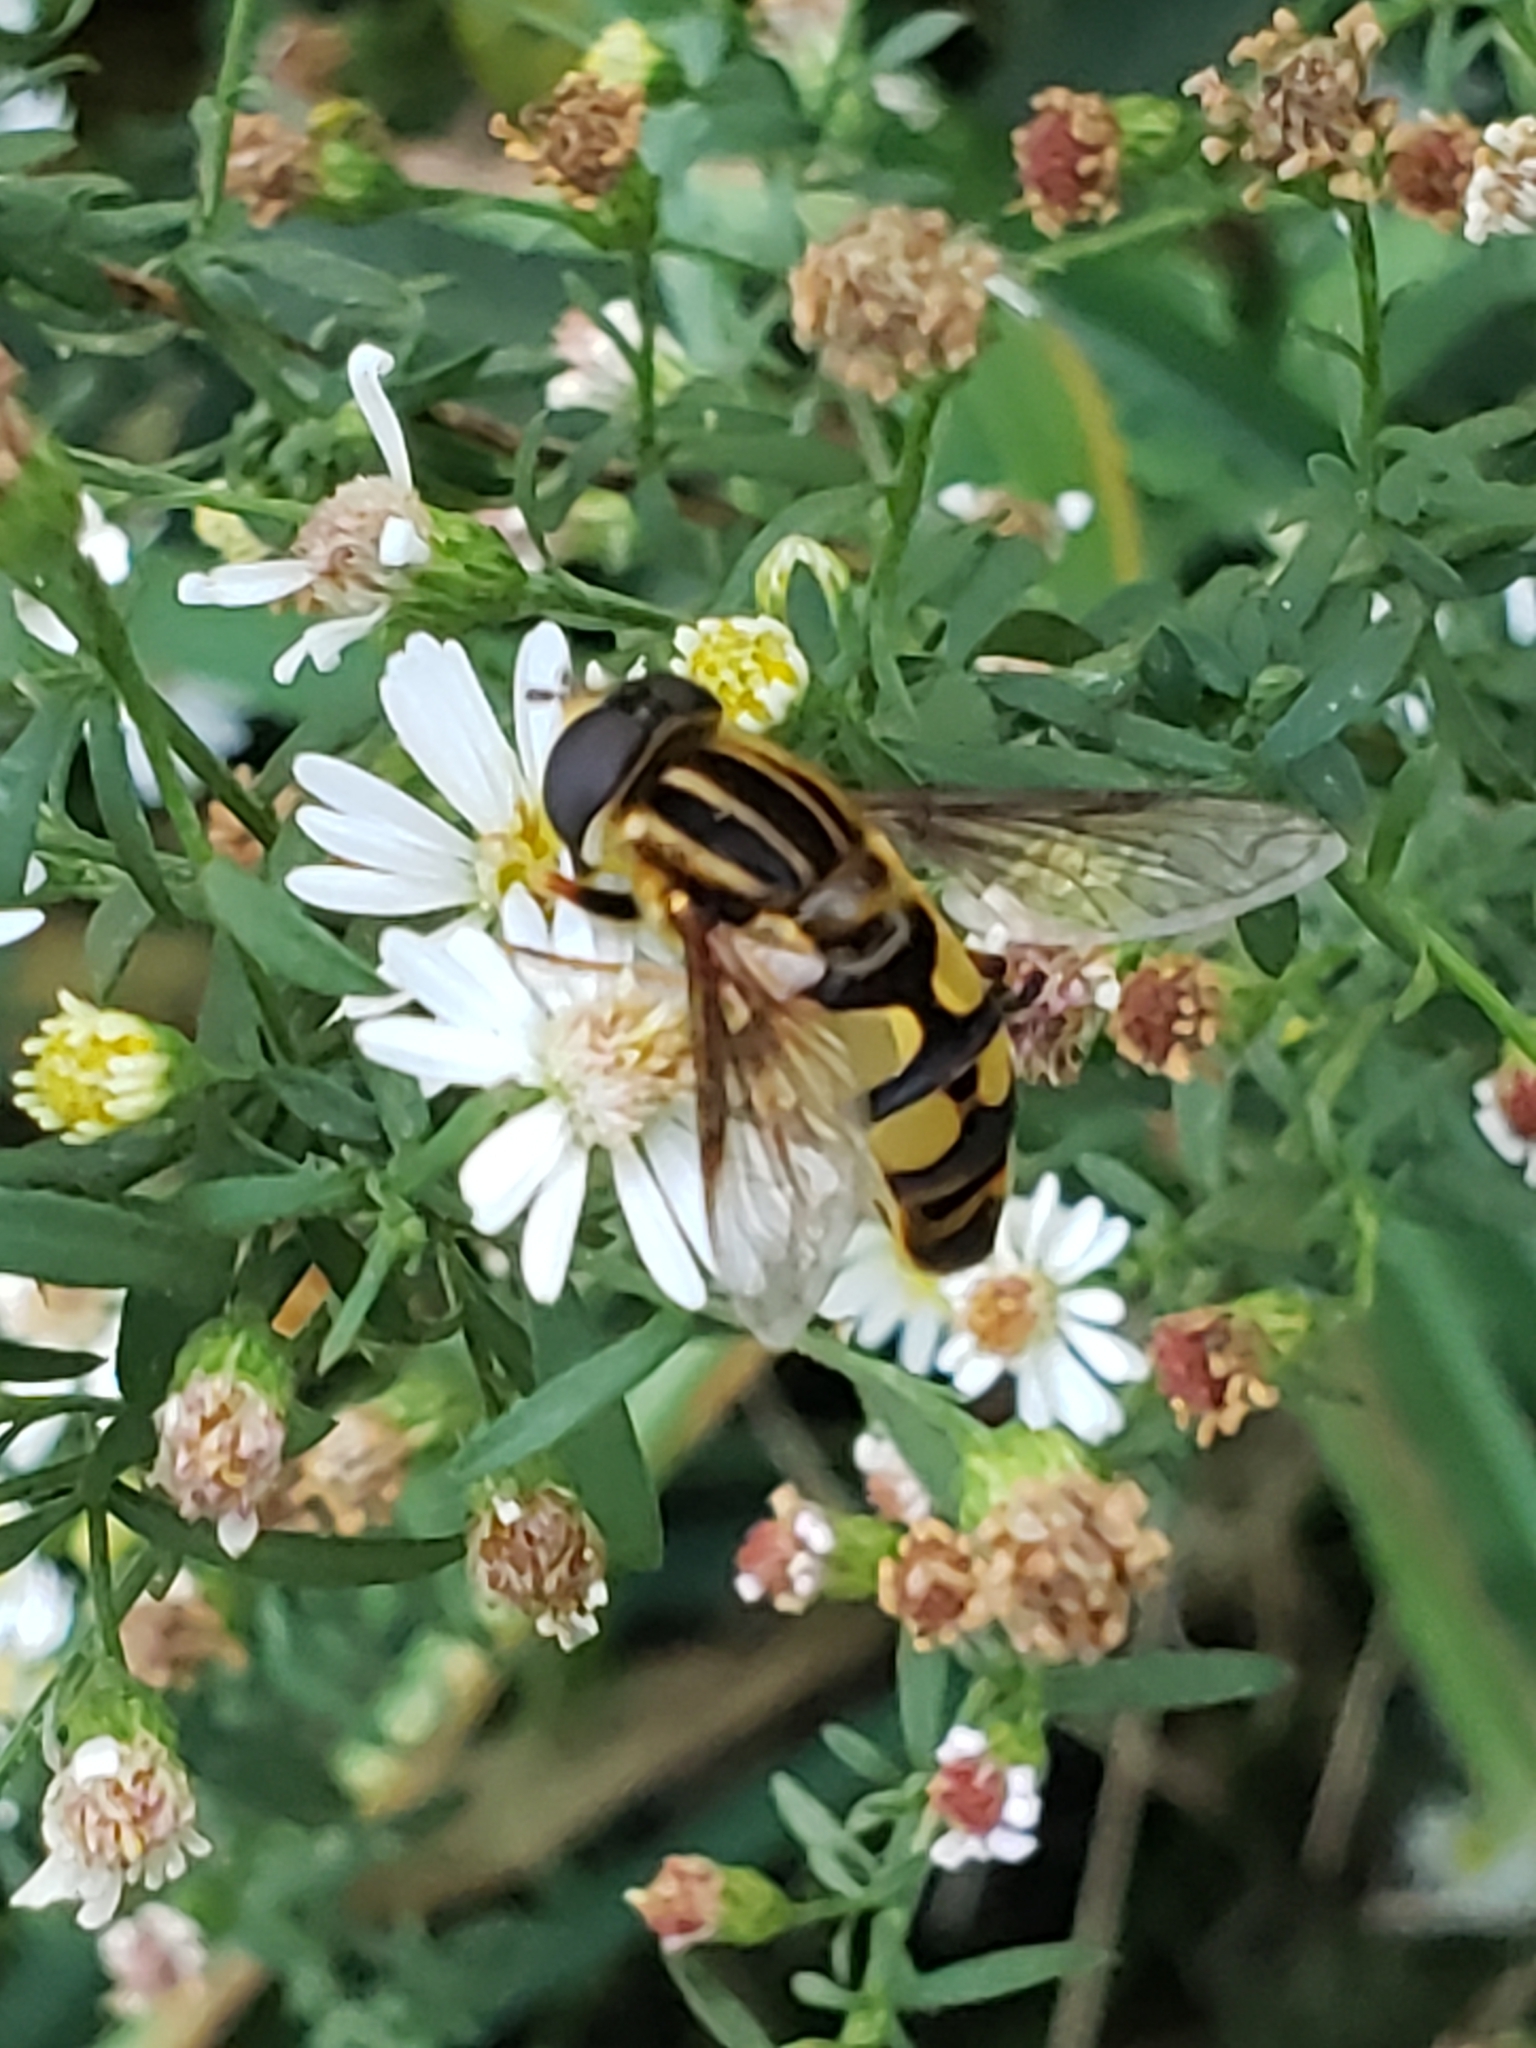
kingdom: Animalia
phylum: Arthropoda
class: Insecta
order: Diptera
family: Syrphidae
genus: Helophilus
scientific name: Helophilus fasciatus
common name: Narrow-headed marsh fly
